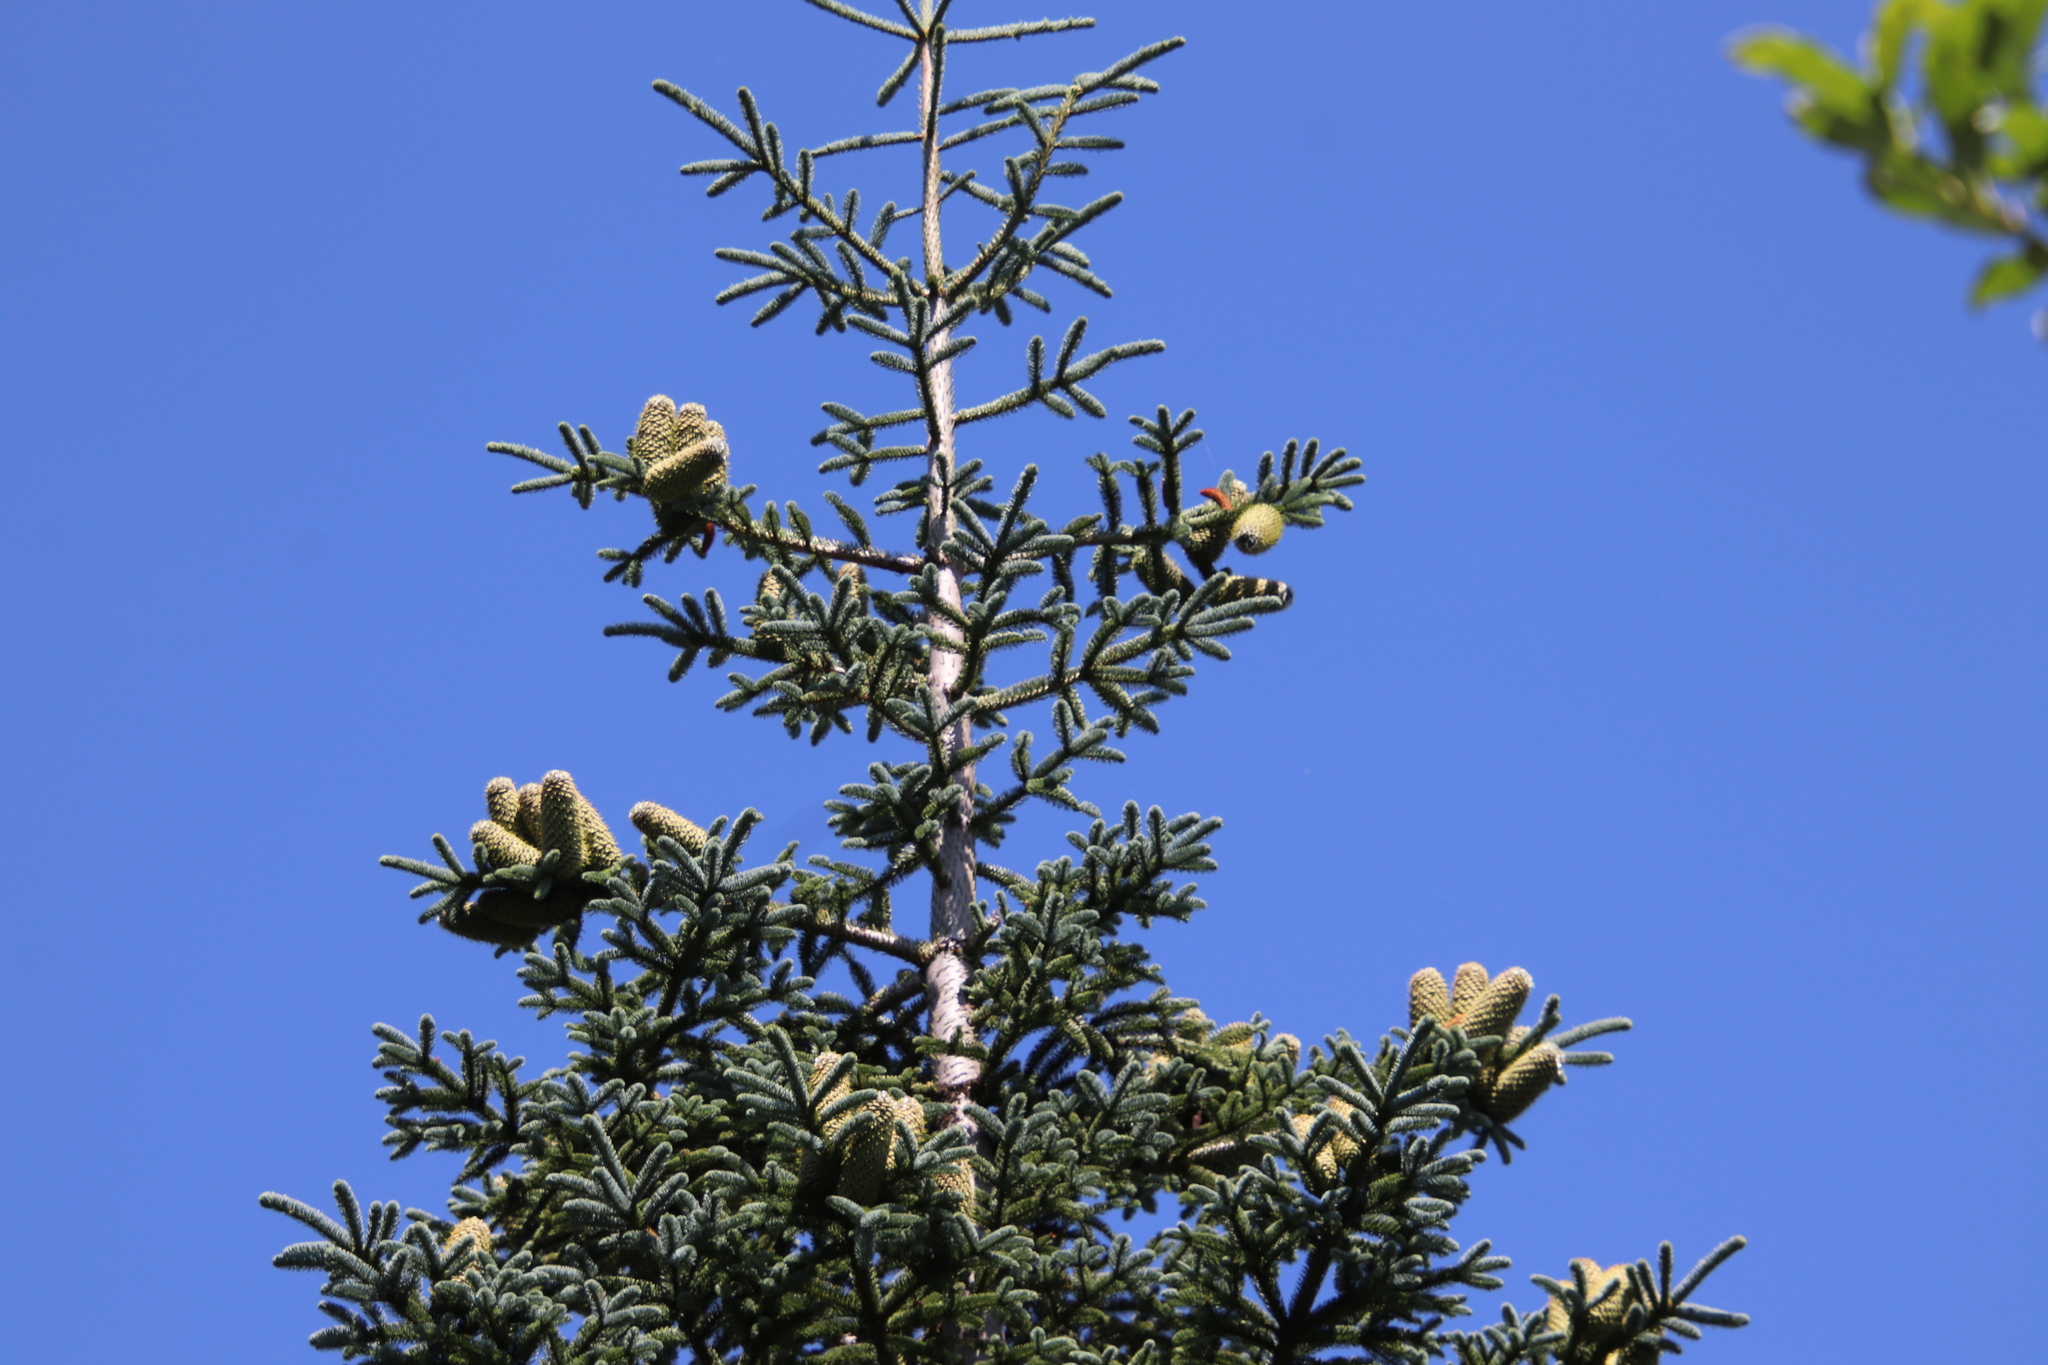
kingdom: Plantae
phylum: Tracheophyta
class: Pinopsida
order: Pinales
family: Pinaceae
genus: Abies
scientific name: Abies procera
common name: Noble fir
